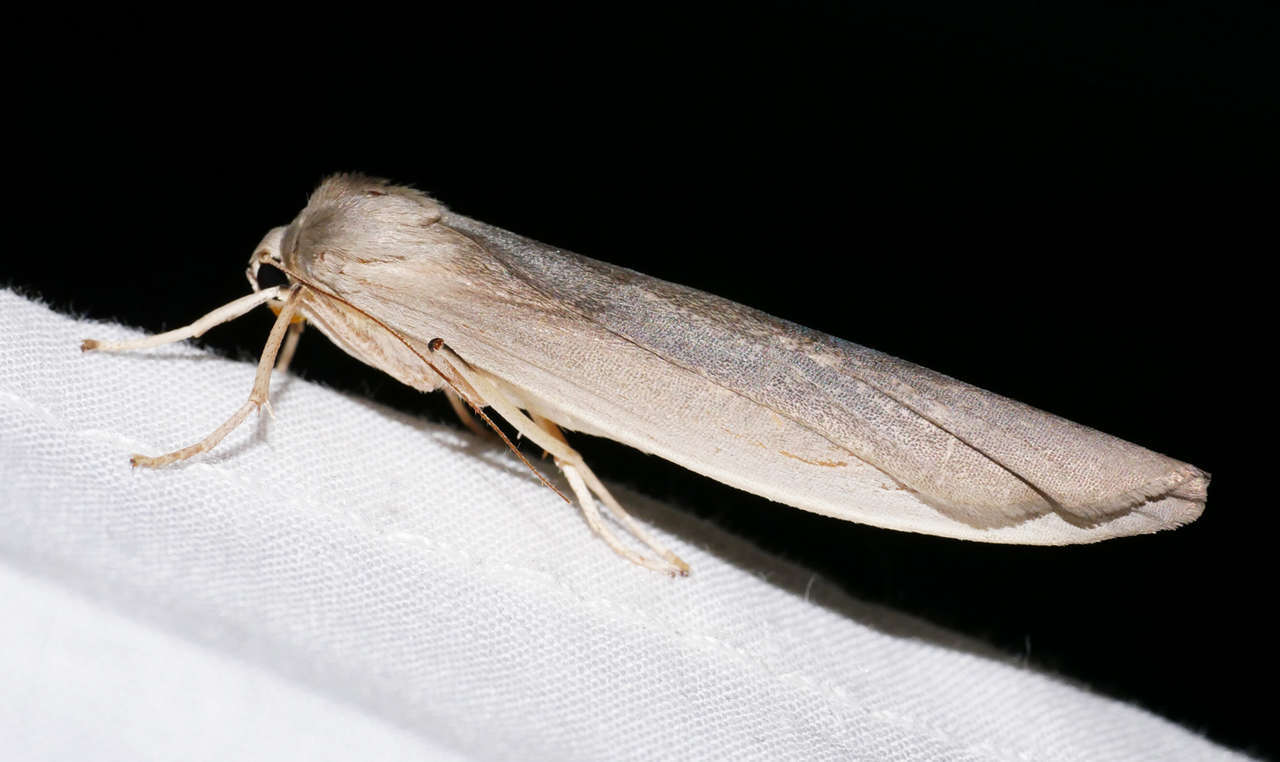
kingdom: Animalia
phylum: Arthropoda
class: Insecta
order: Lepidoptera
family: Erebidae
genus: Calamidia
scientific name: Calamidia hirta
